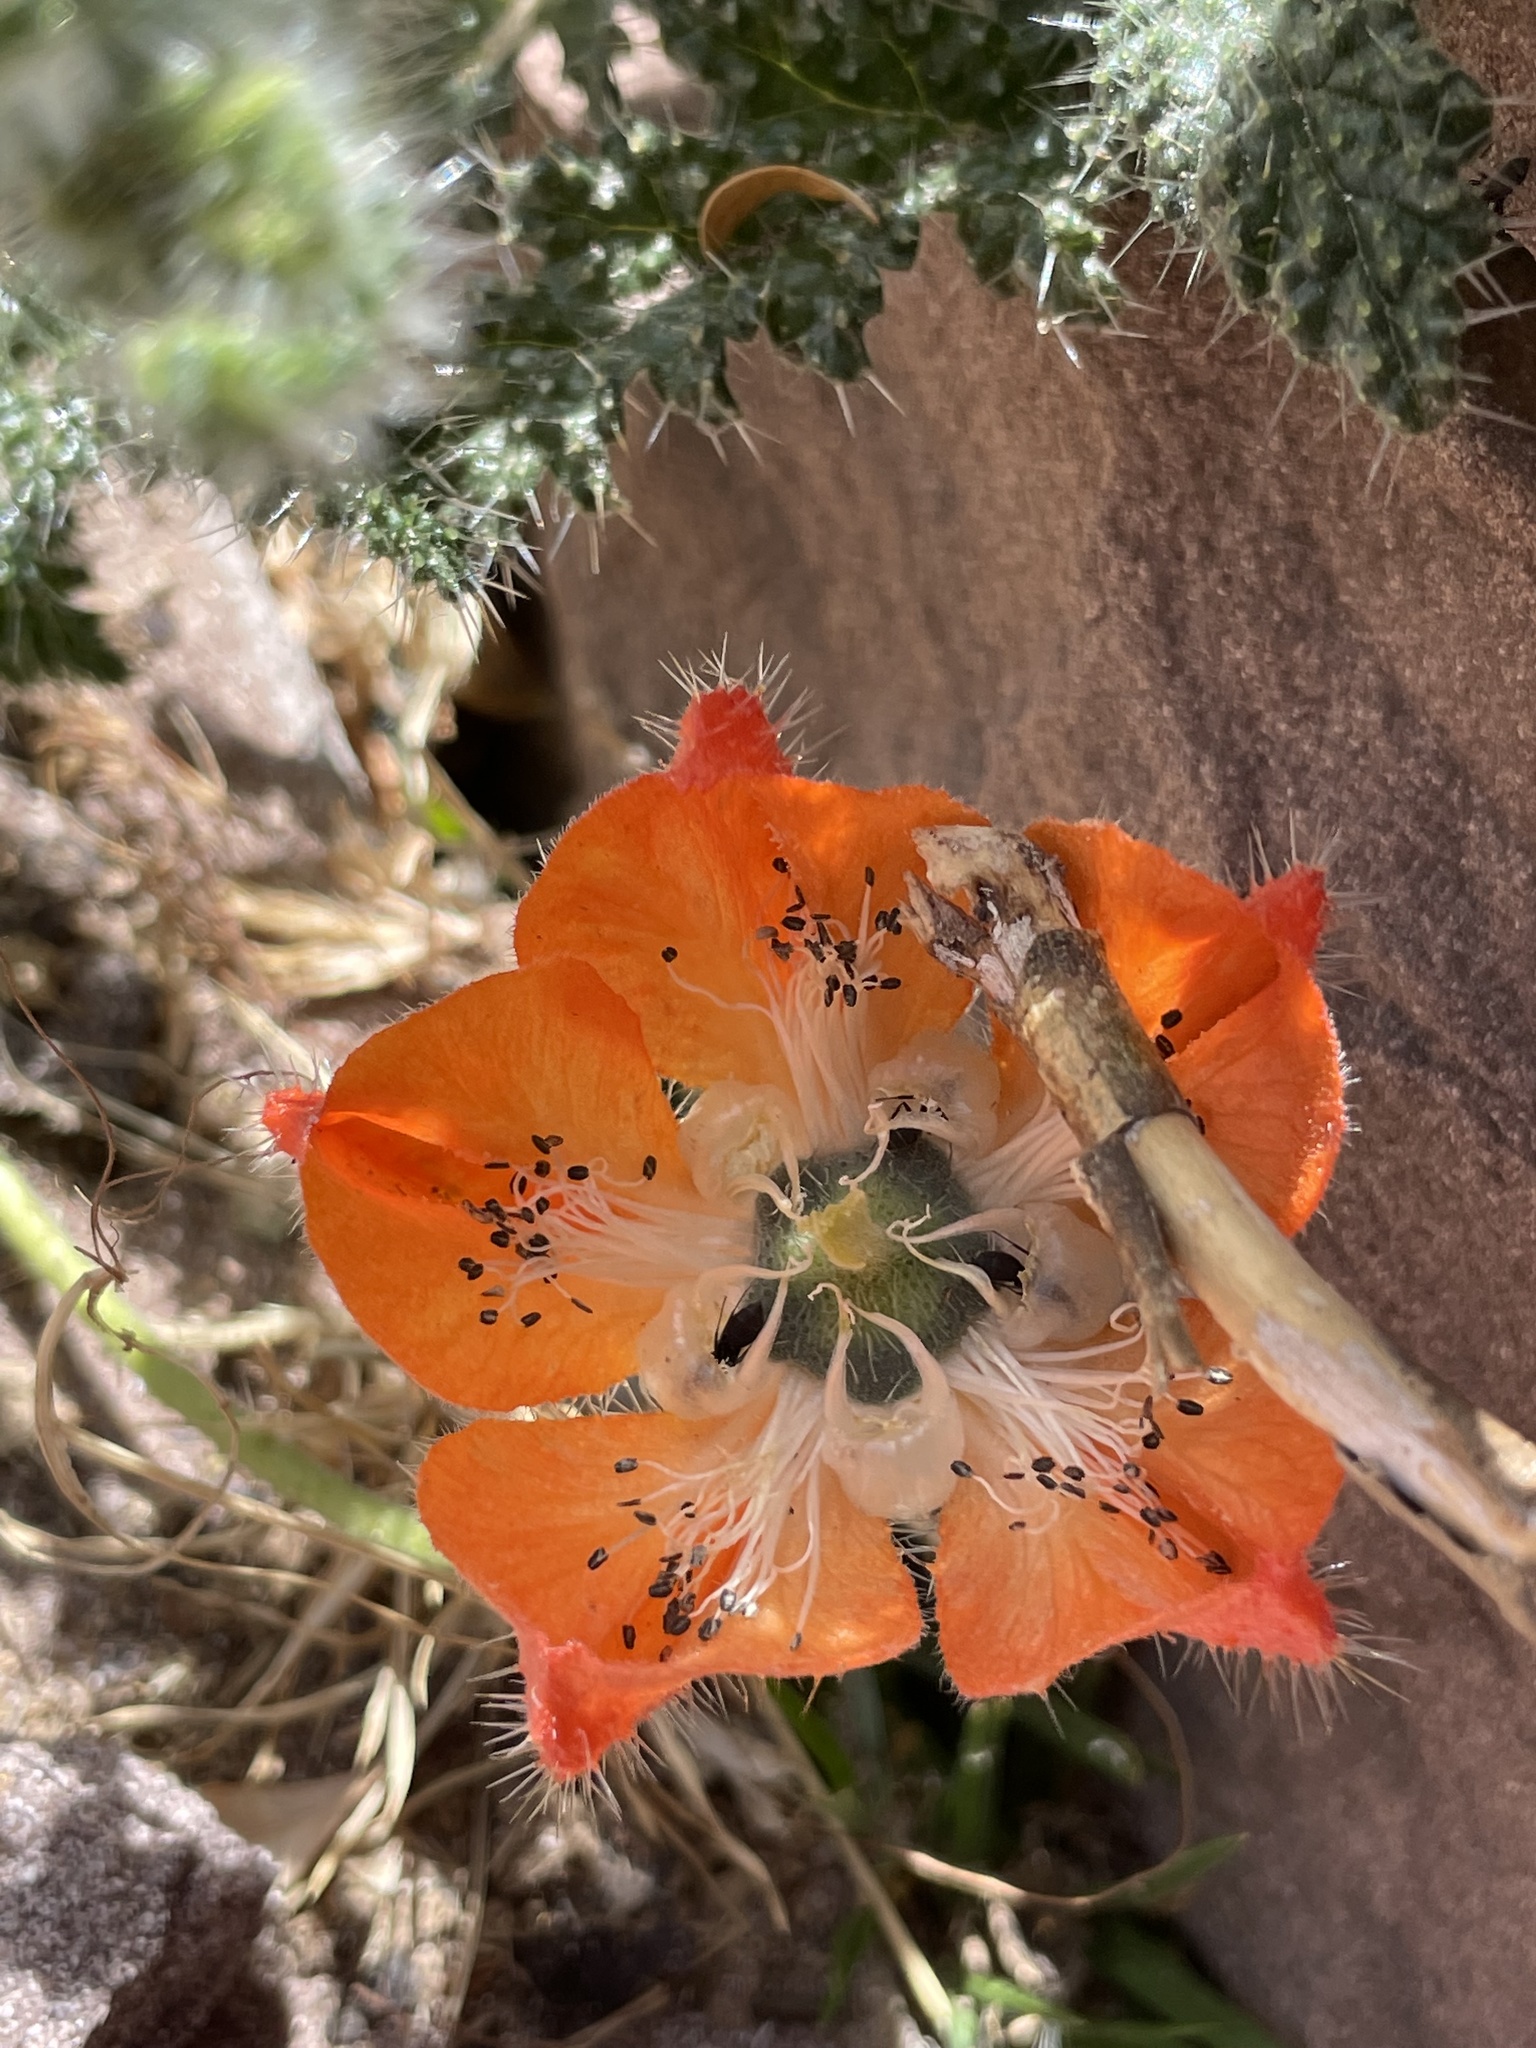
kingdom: Plantae
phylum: Tracheophyta
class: Magnoliopsida
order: Cornales
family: Loasaceae
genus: Caiophora
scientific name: Caiophora pentlandii
